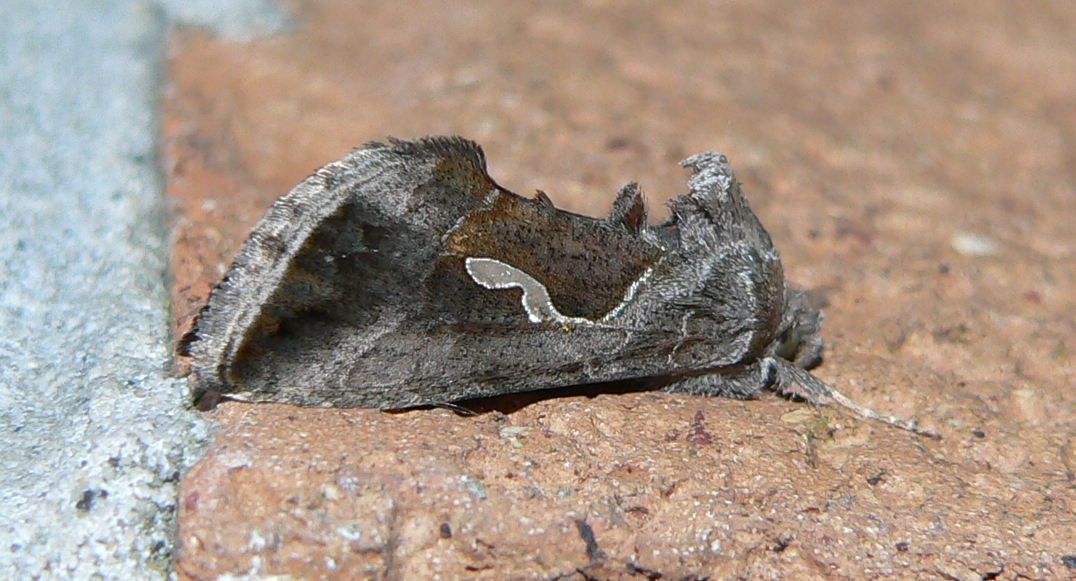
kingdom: Animalia
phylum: Arthropoda
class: Insecta
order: Lepidoptera
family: Noctuidae
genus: Macdunnoughia
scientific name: Macdunnoughia confusa
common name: Dewick's plusia
